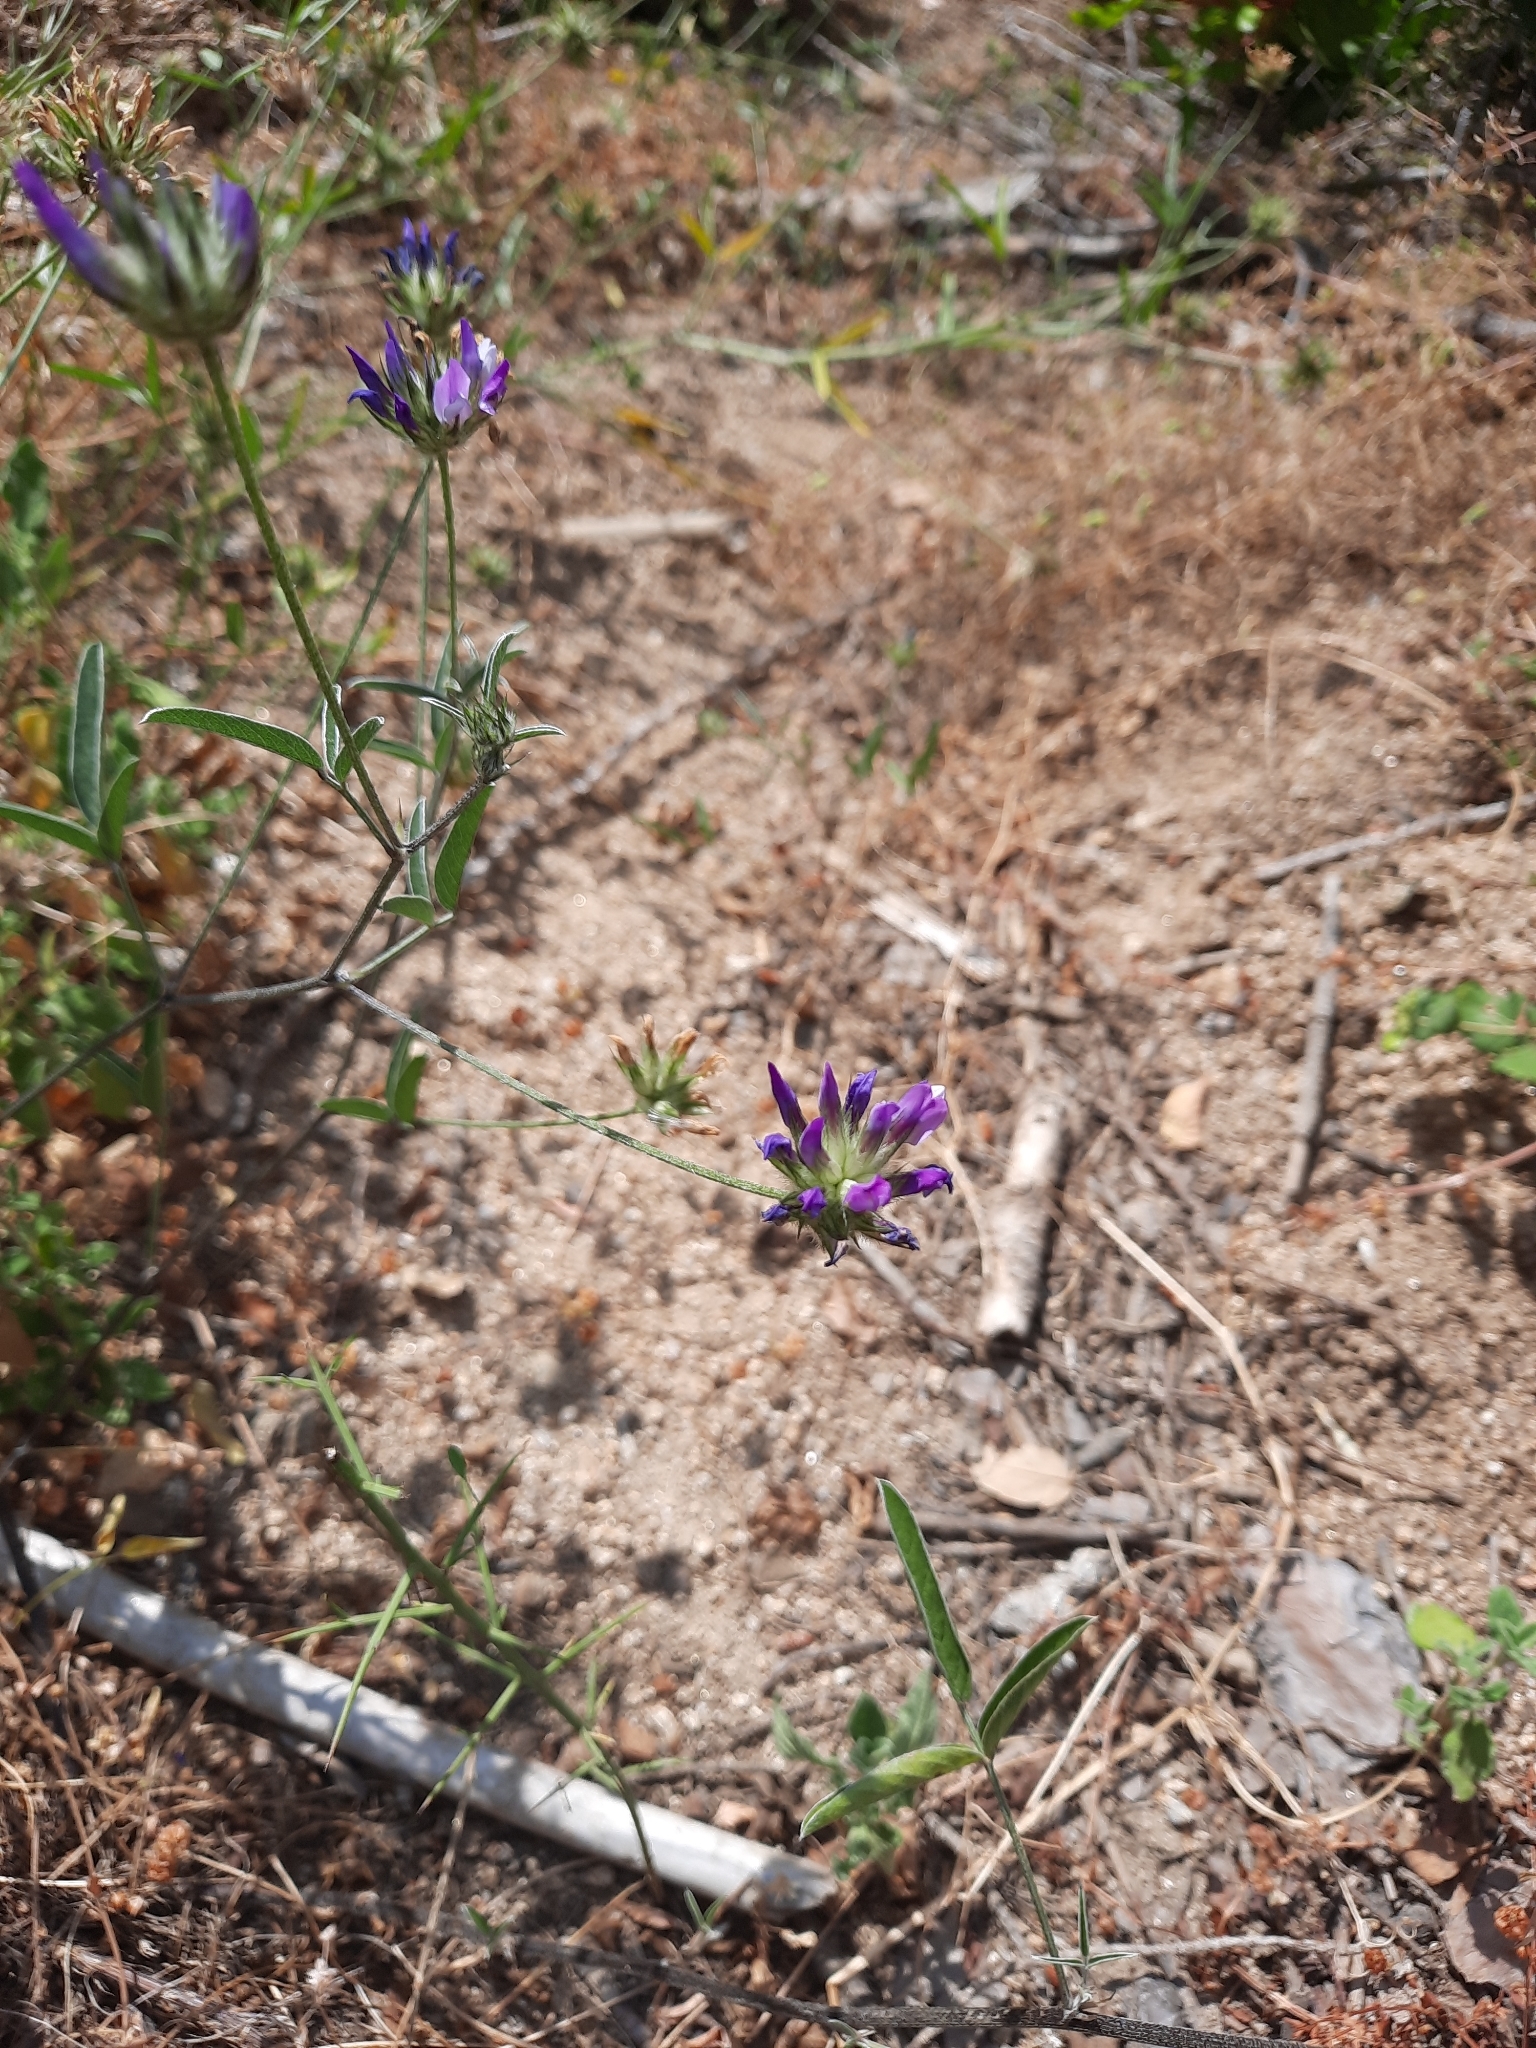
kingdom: Plantae
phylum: Tracheophyta
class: Magnoliopsida
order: Fabales
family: Fabaceae
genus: Bituminaria
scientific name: Bituminaria bituminosa
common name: Arabian pea
